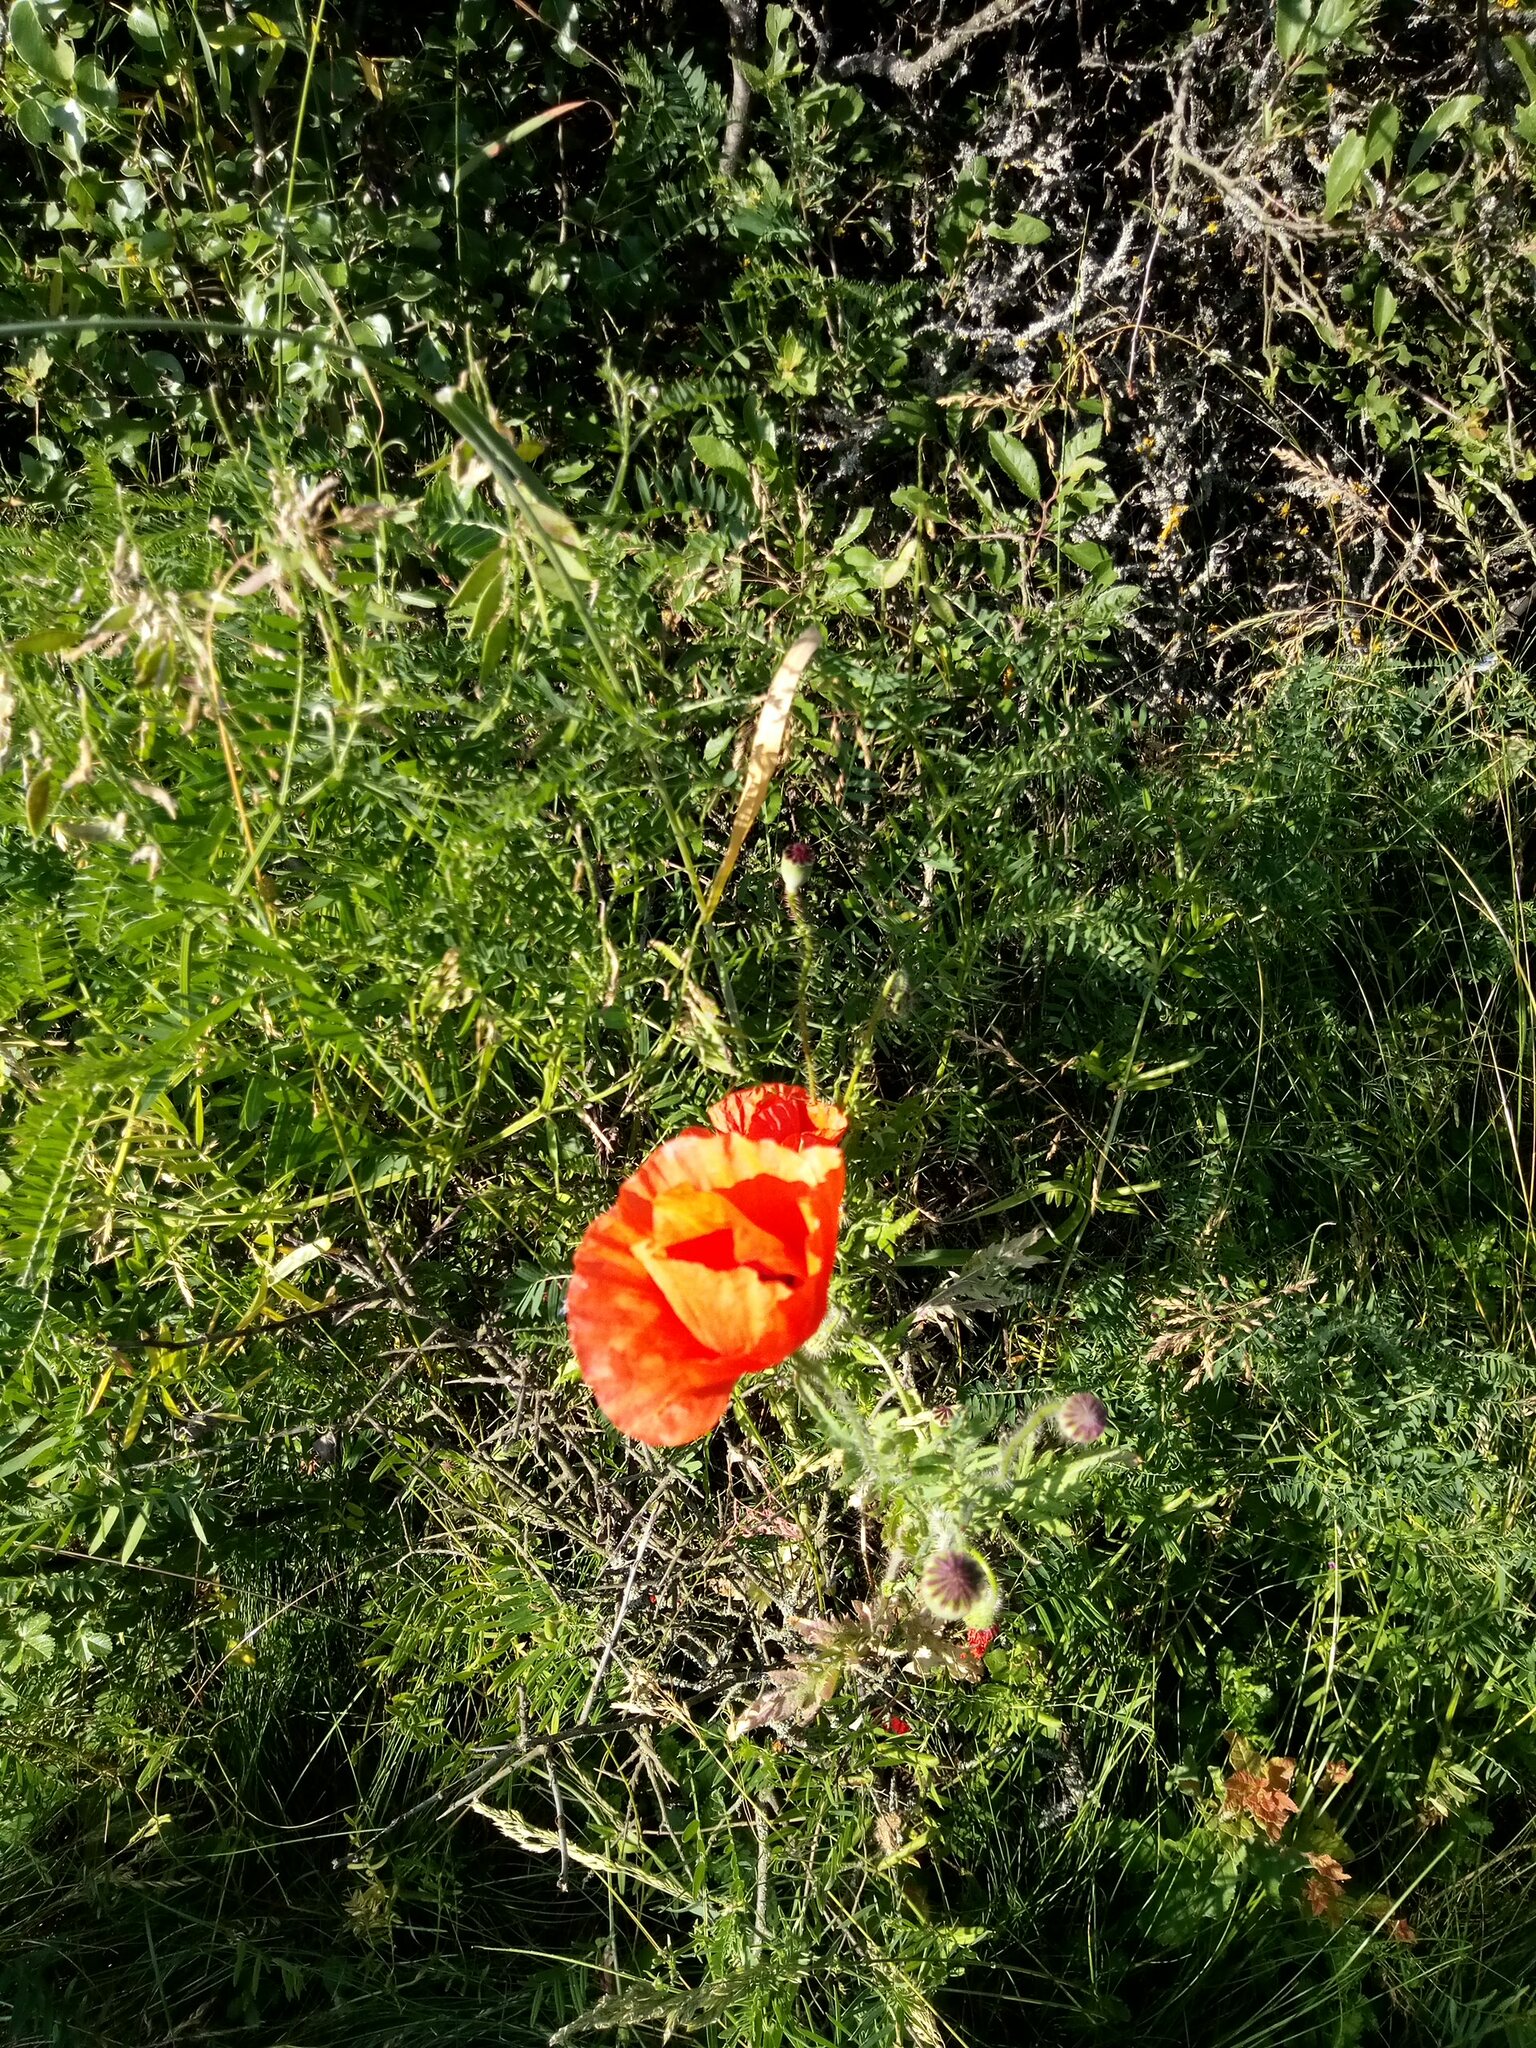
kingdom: Plantae
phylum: Tracheophyta
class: Magnoliopsida
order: Ranunculales
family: Papaveraceae
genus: Papaver
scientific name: Papaver rhoeas
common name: Corn poppy
